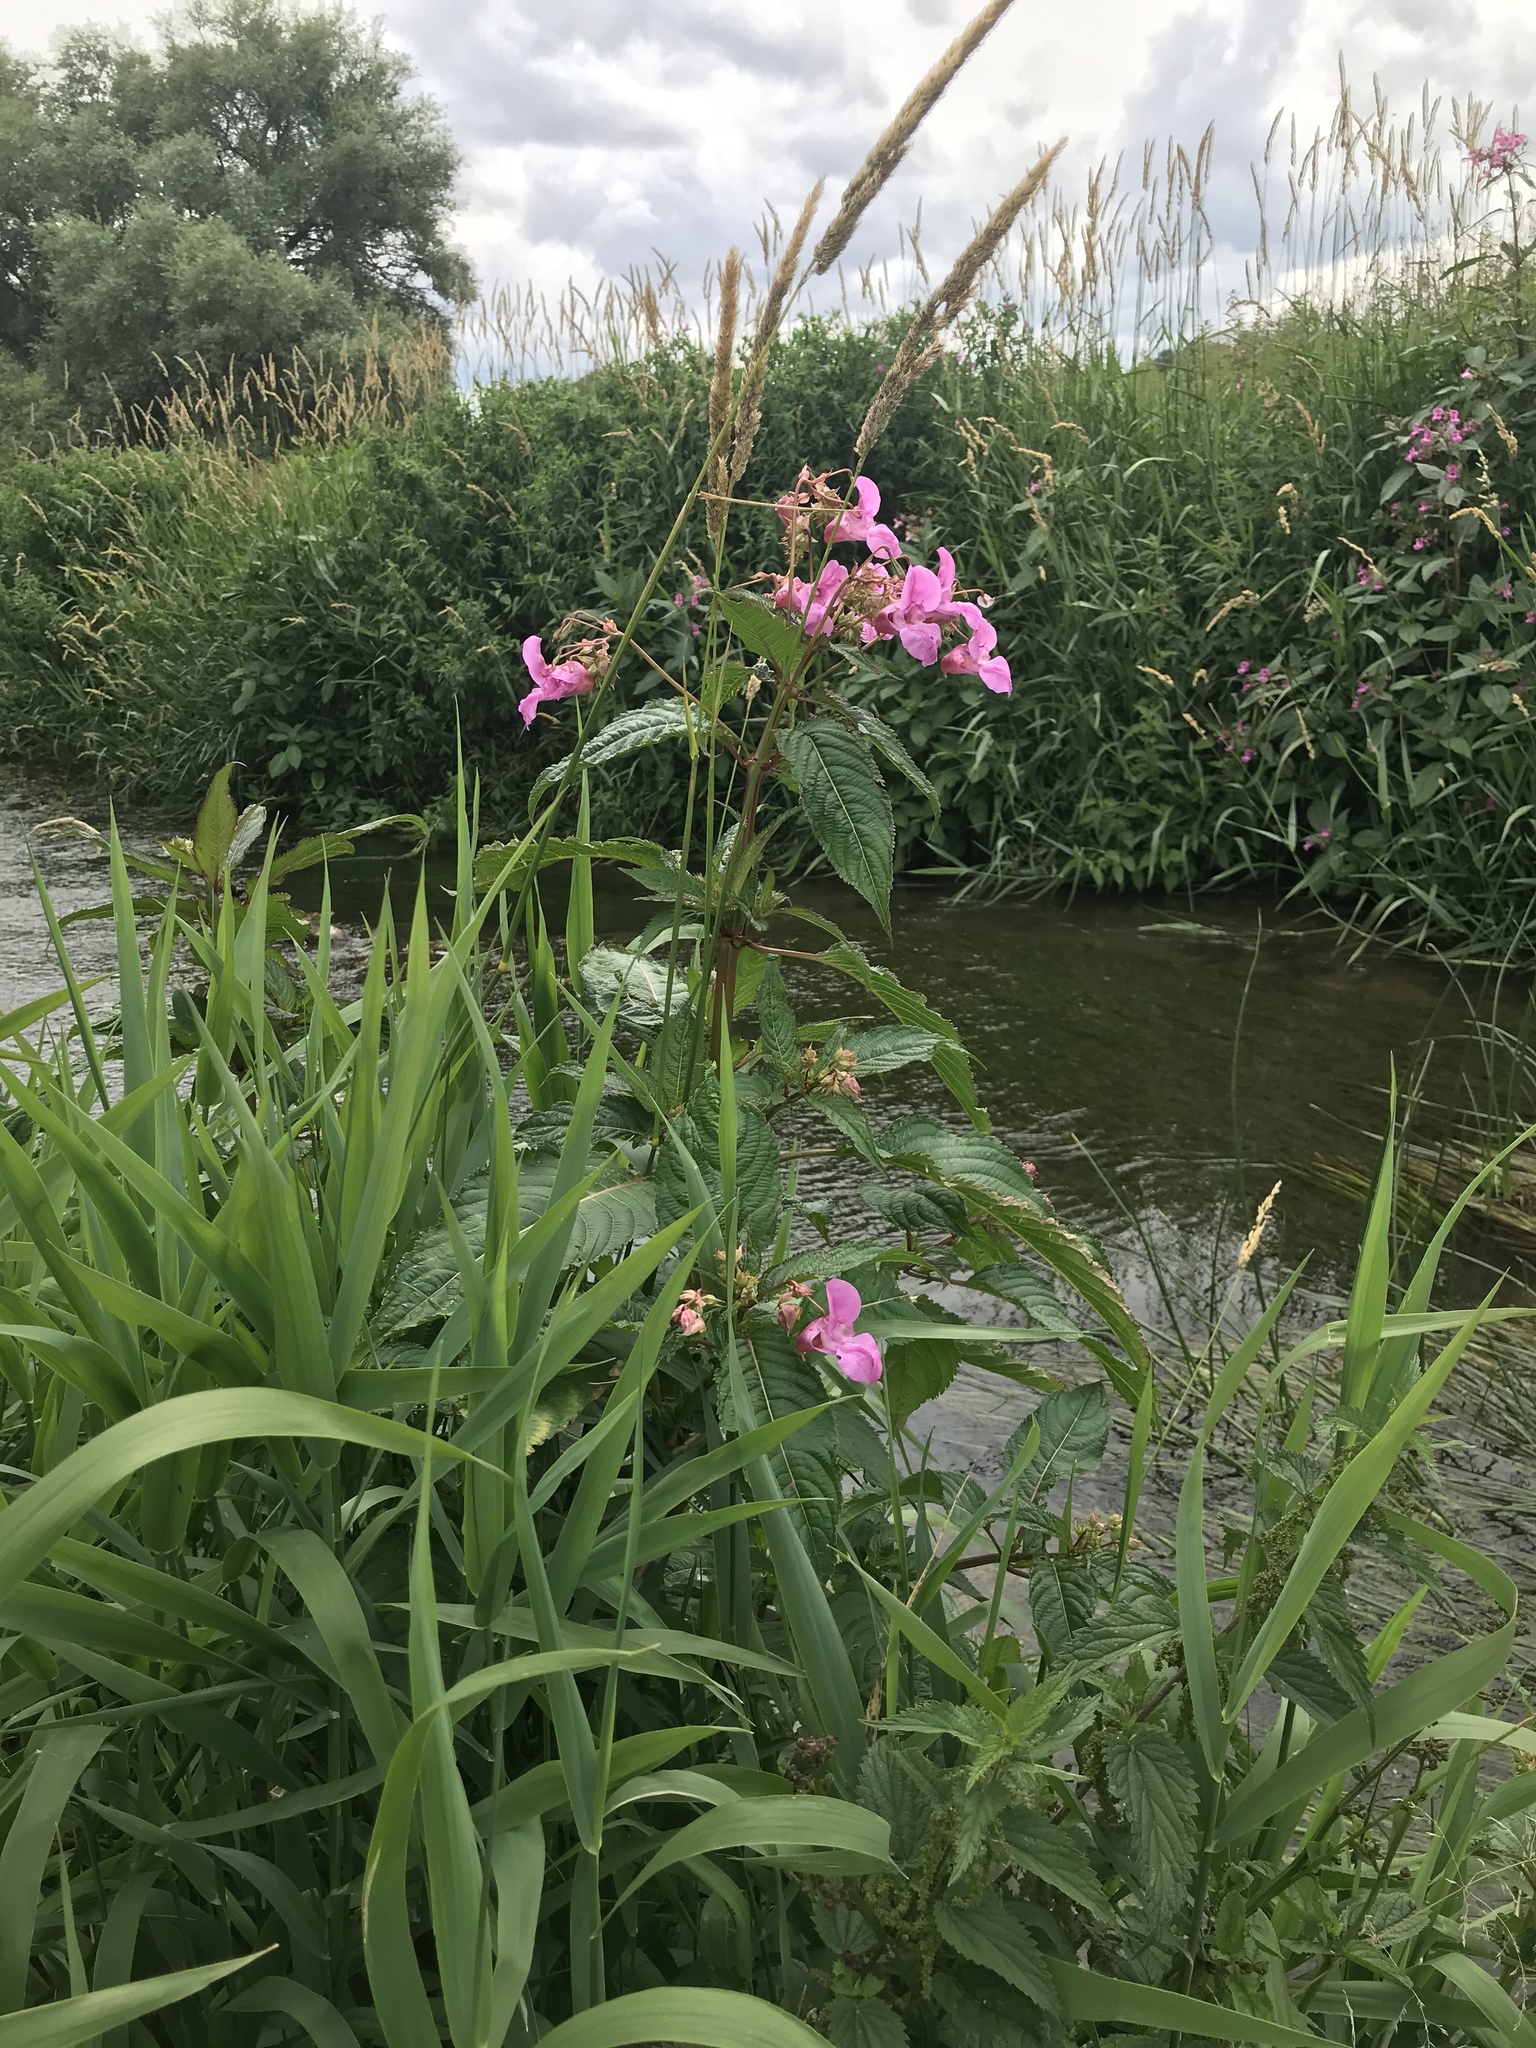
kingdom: Plantae
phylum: Tracheophyta
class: Magnoliopsida
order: Ericales
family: Balsaminaceae
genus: Impatiens
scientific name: Impatiens glandulifera
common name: Himalayan balsam
